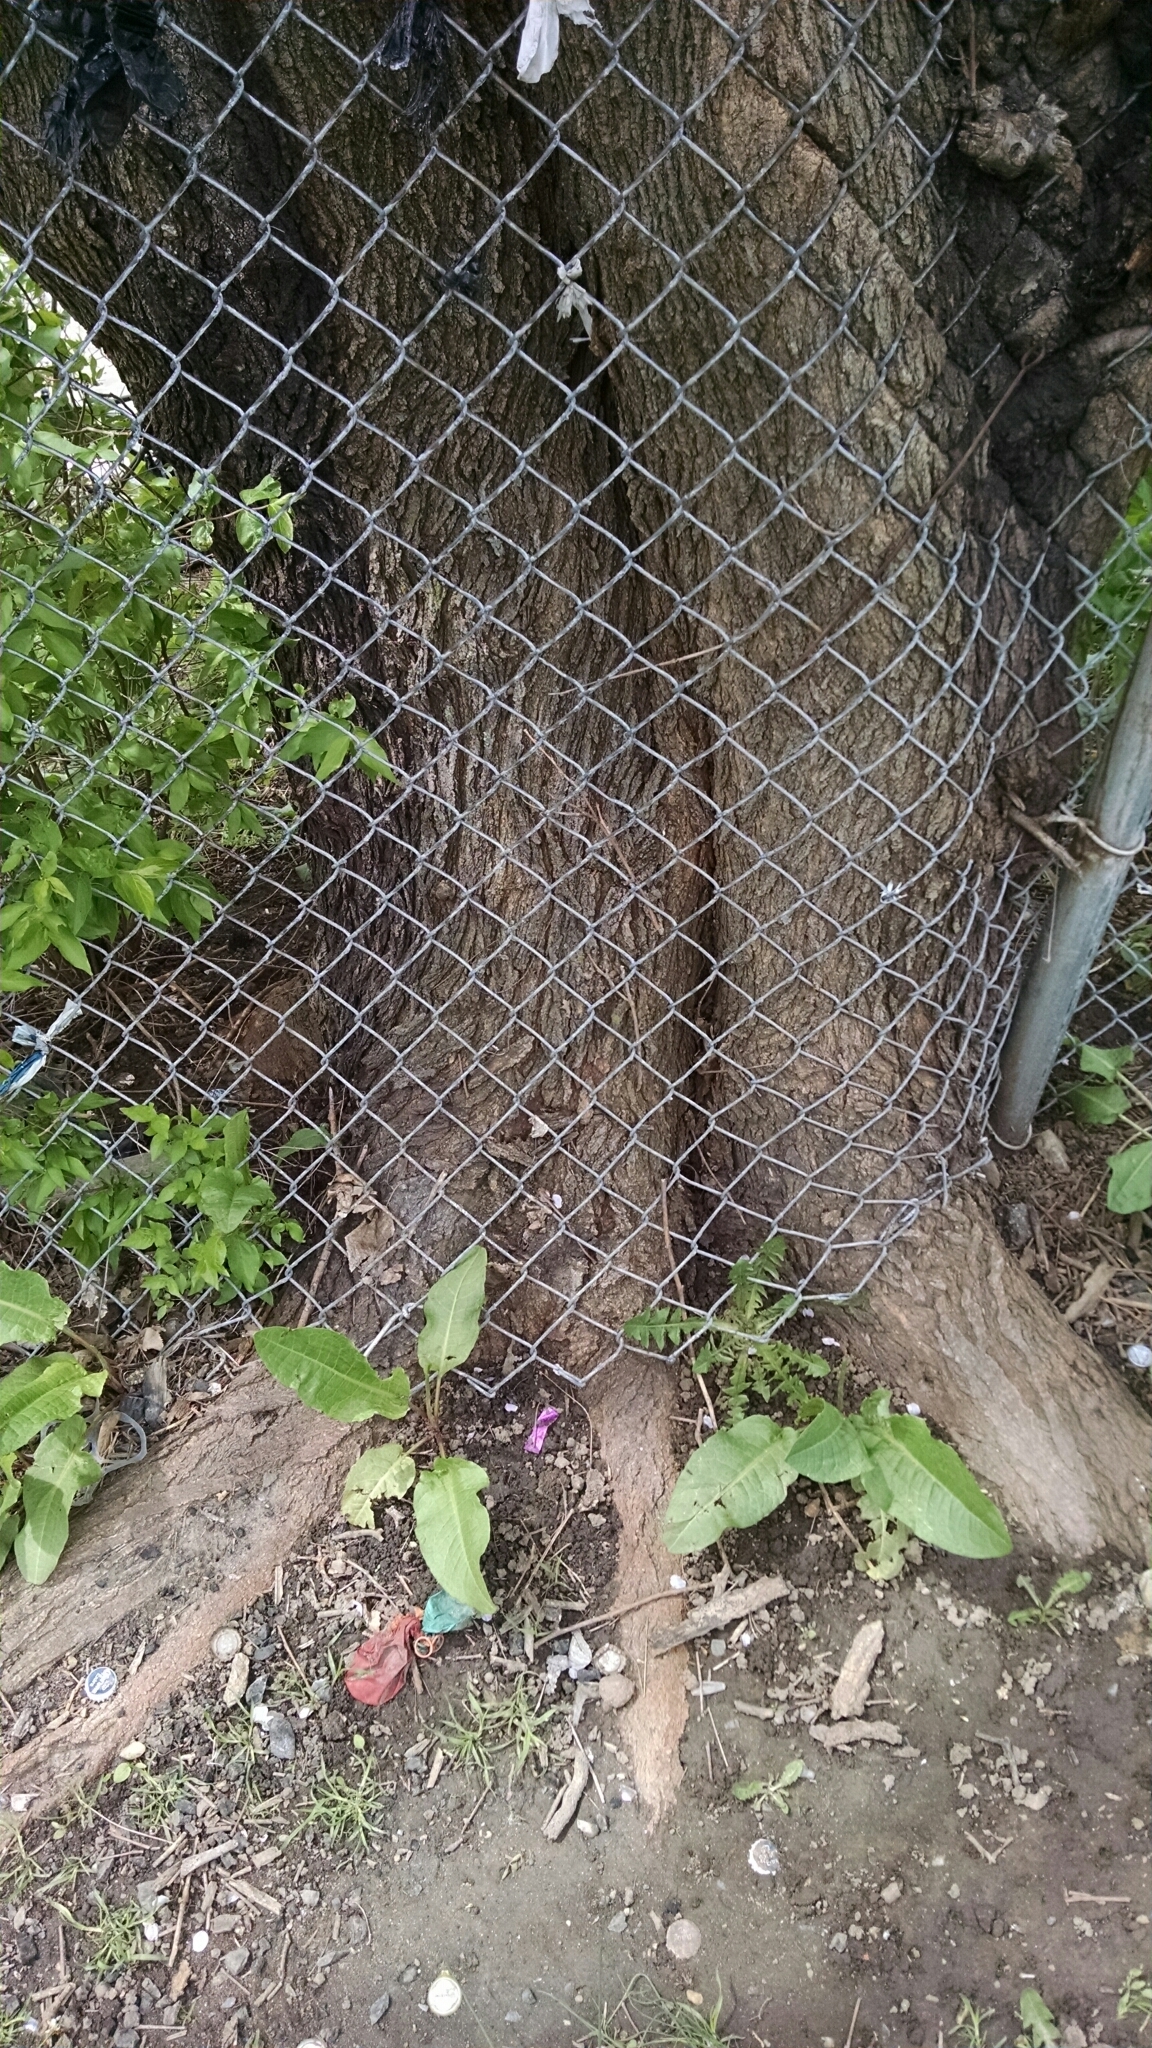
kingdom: Plantae
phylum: Tracheophyta
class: Magnoliopsida
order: Rosales
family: Moraceae
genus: Morus
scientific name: Morus alba
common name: White mulberry
